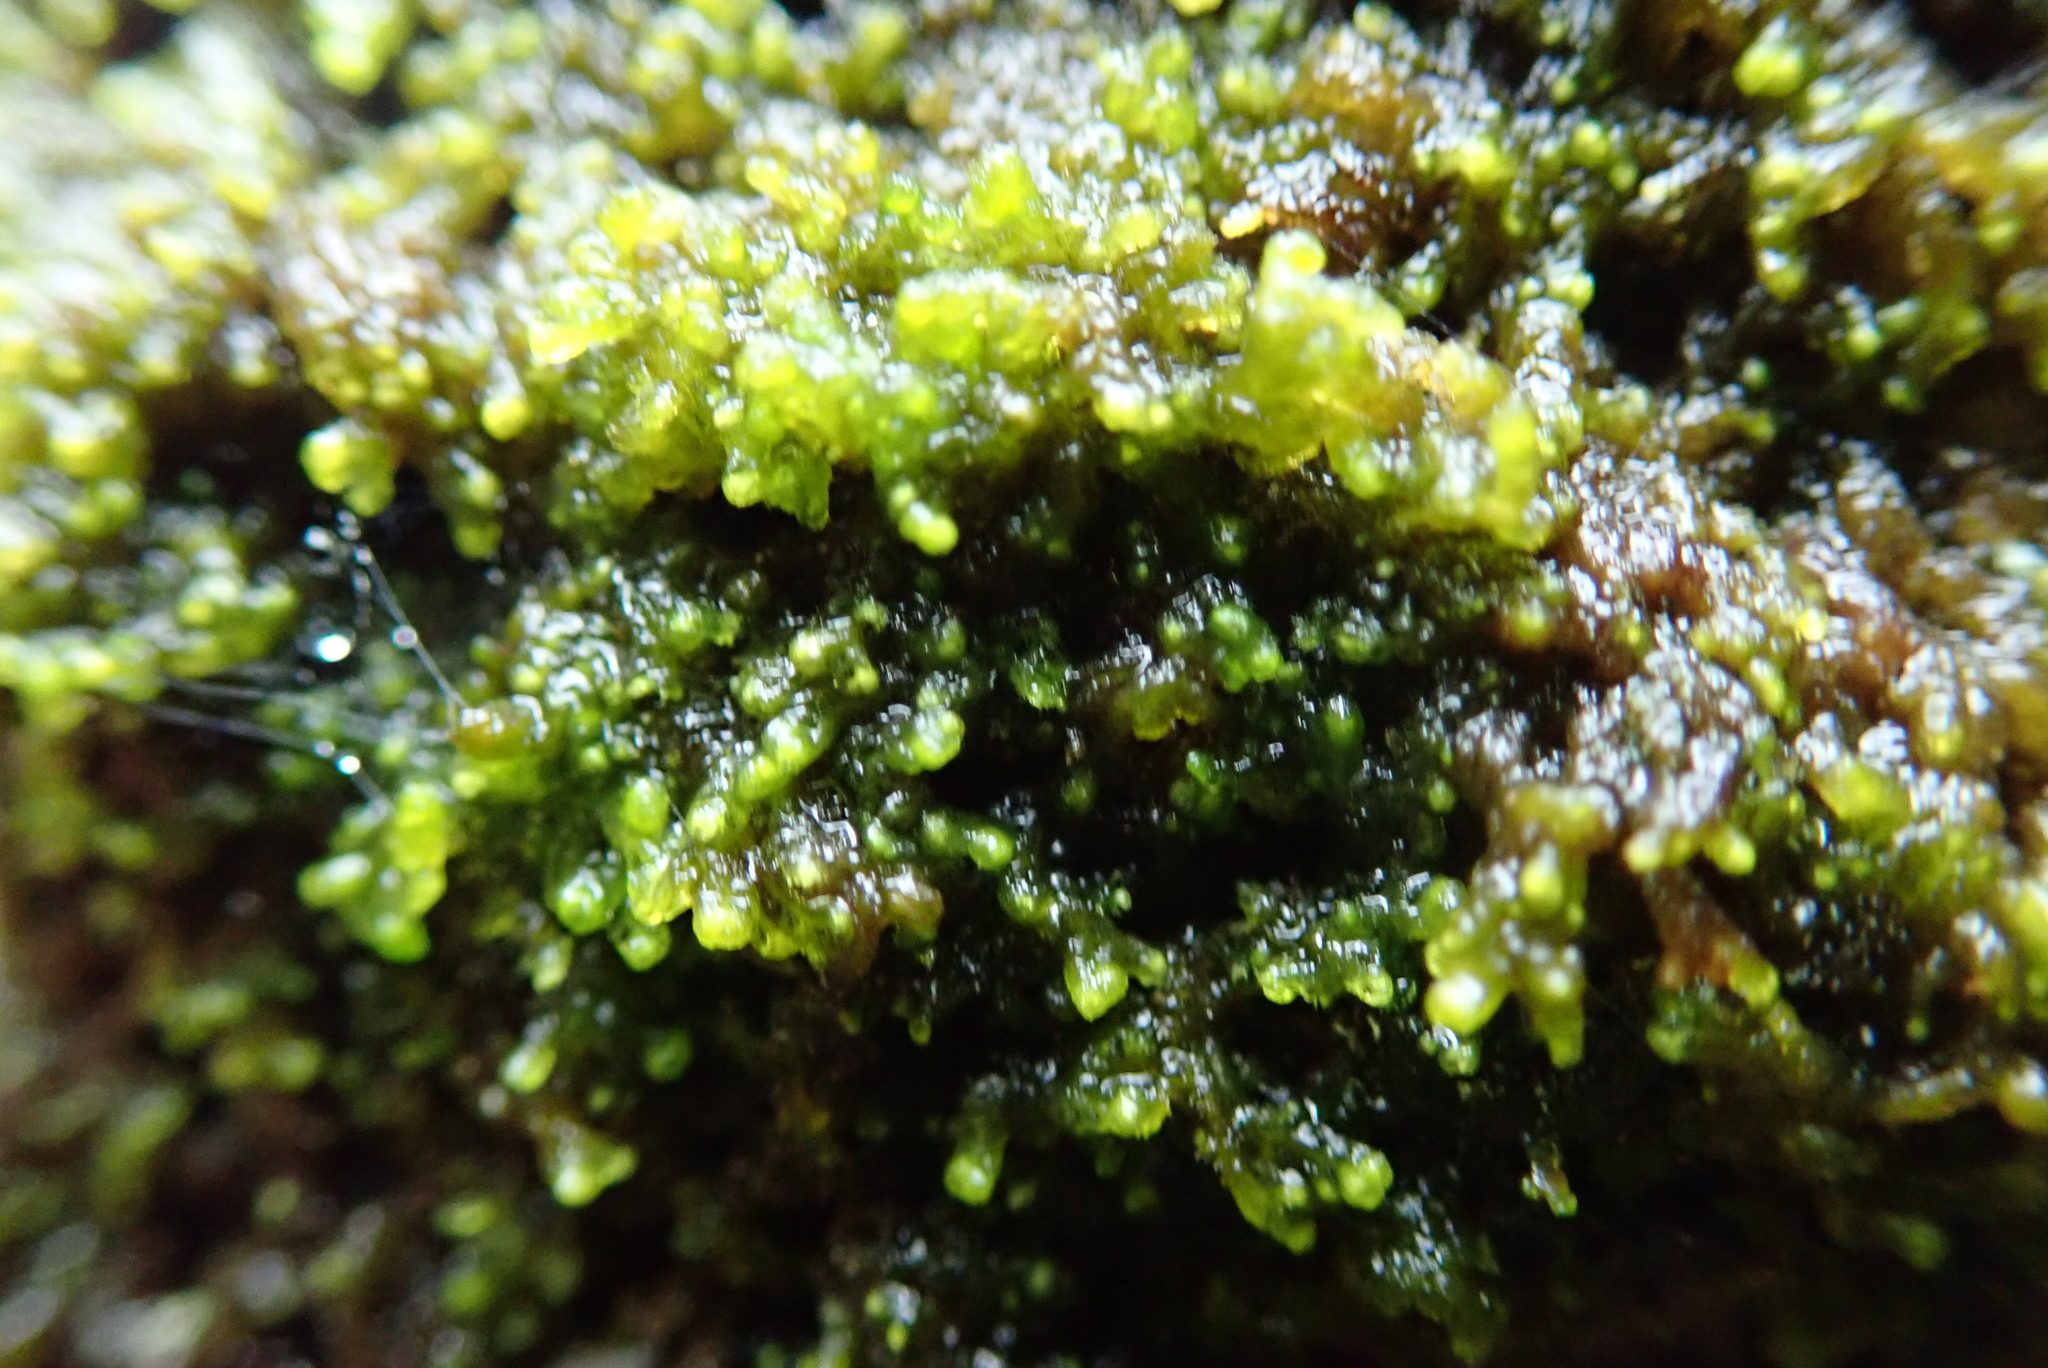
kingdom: Plantae
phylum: Marchantiophyta
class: Jungermanniopsida
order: Ptilidiales
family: Ptilidiaceae
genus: Ptilidium
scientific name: Ptilidium californicum
